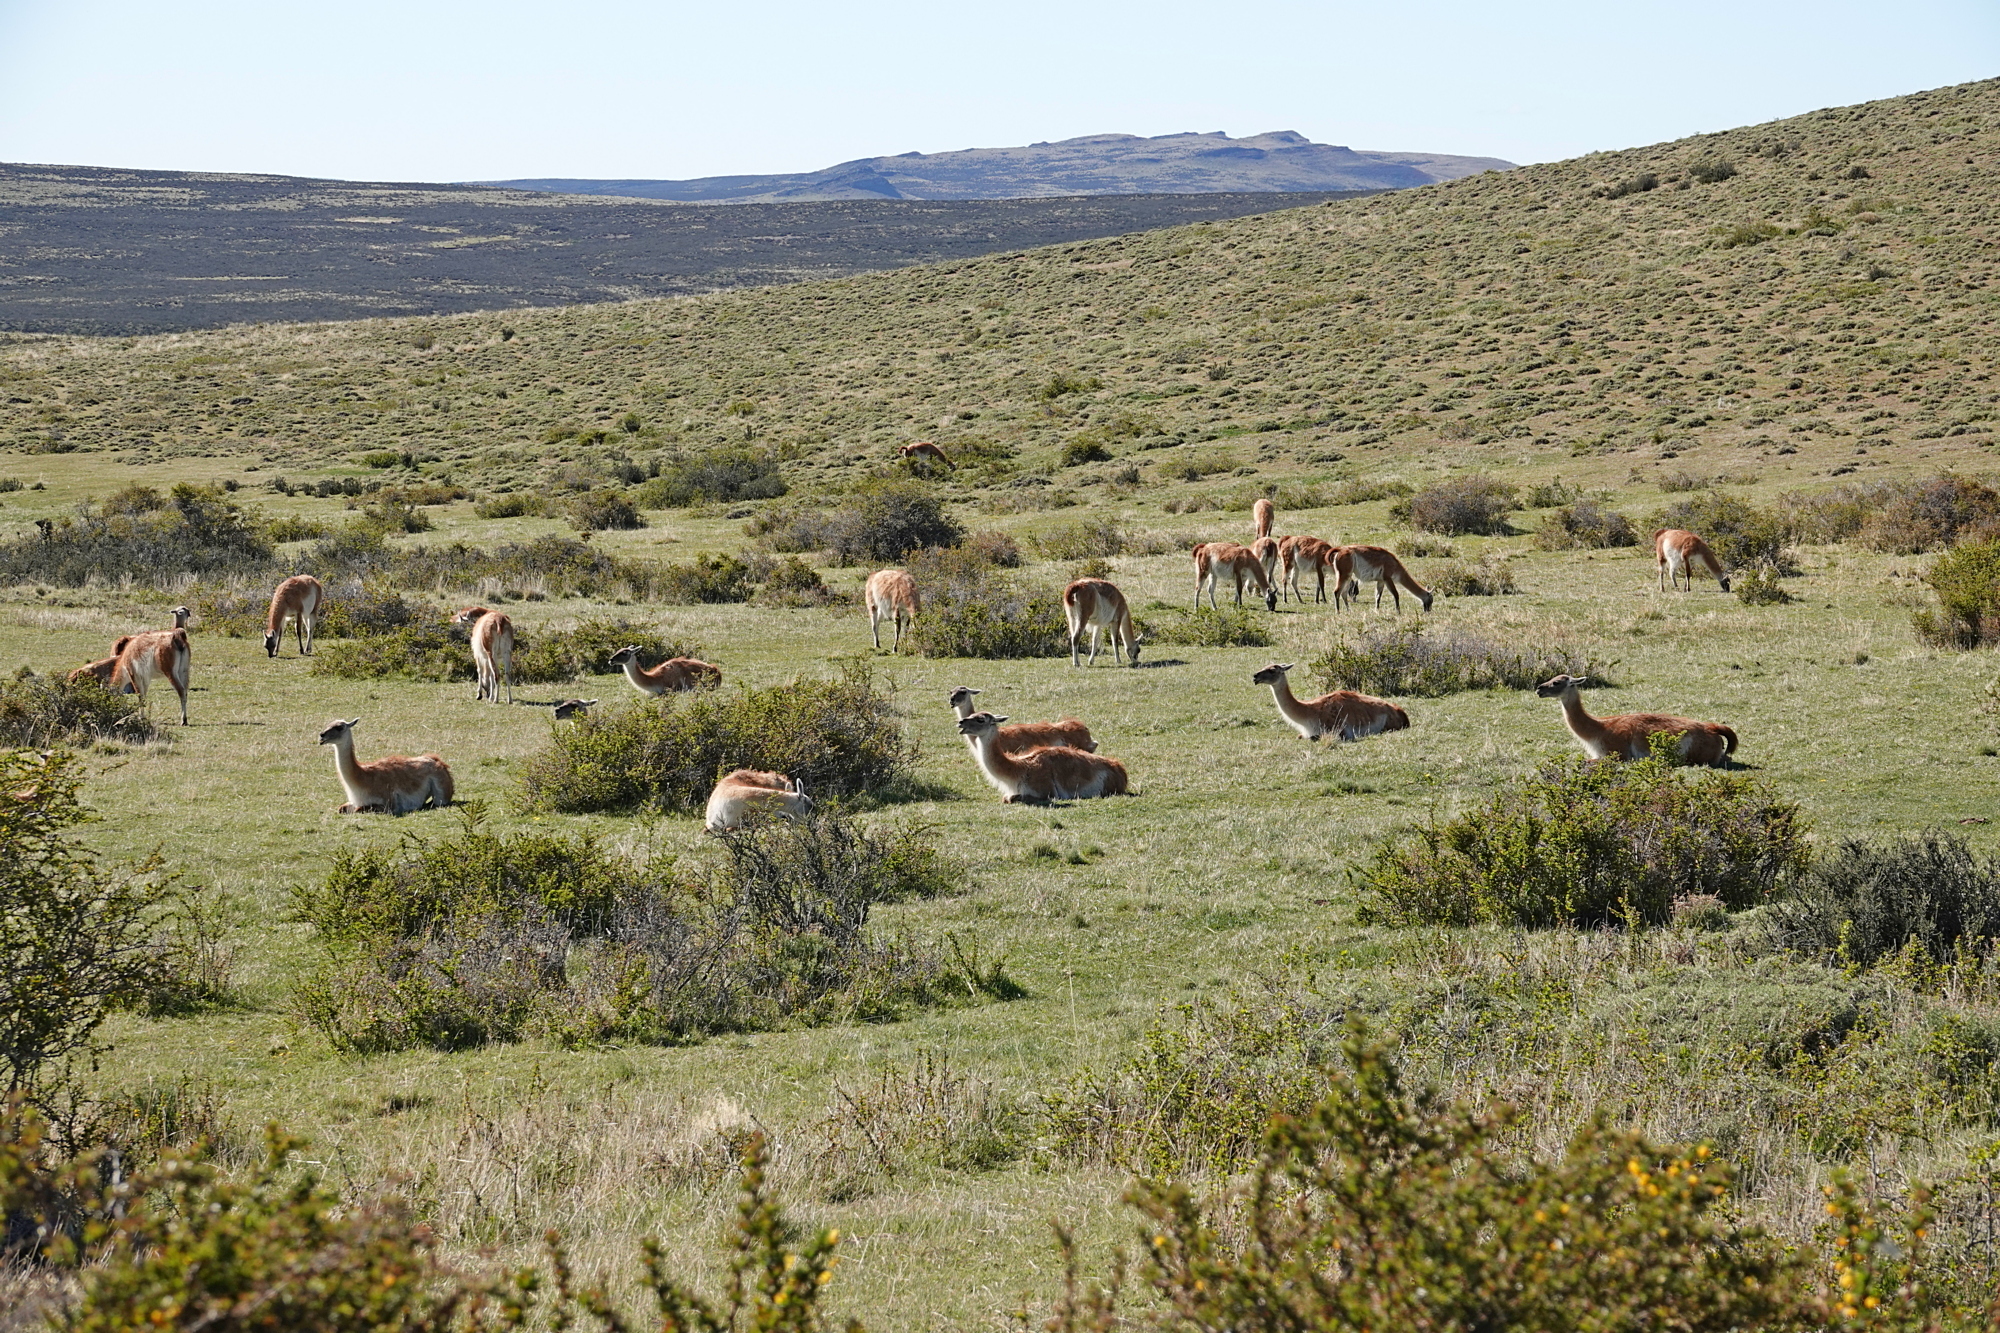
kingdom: Animalia
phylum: Chordata
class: Mammalia
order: Artiodactyla
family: Camelidae
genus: Lama
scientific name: Lama glama
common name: Llama
